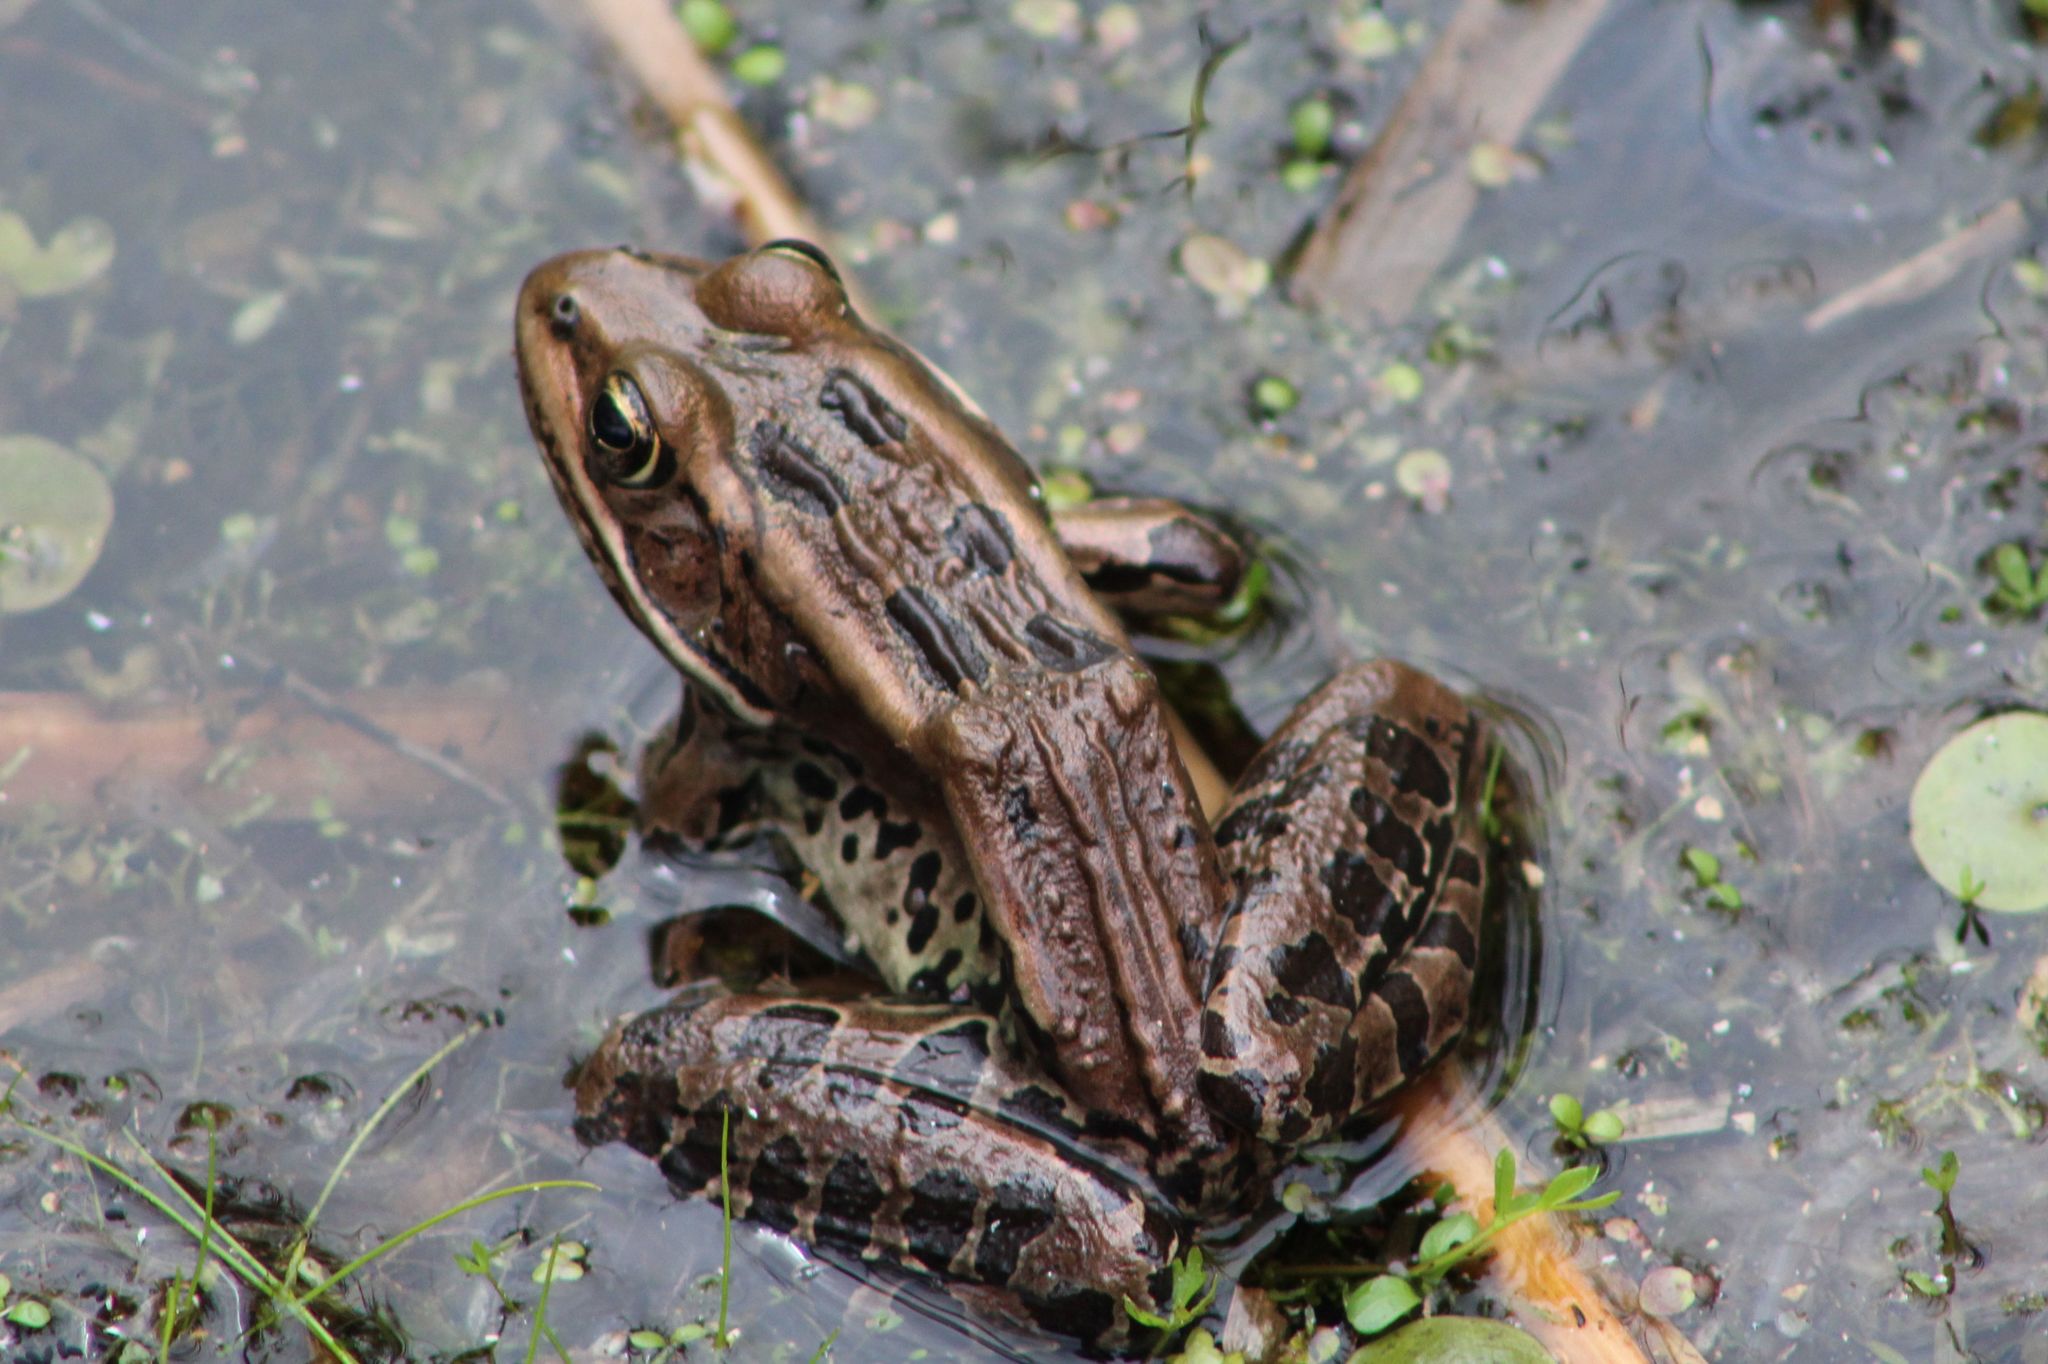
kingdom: Animalia
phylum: Chordata
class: Amphibia
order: Anura
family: Ranidae
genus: Lithobates
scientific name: Lithobates pipiens
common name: Northern leopard frog
